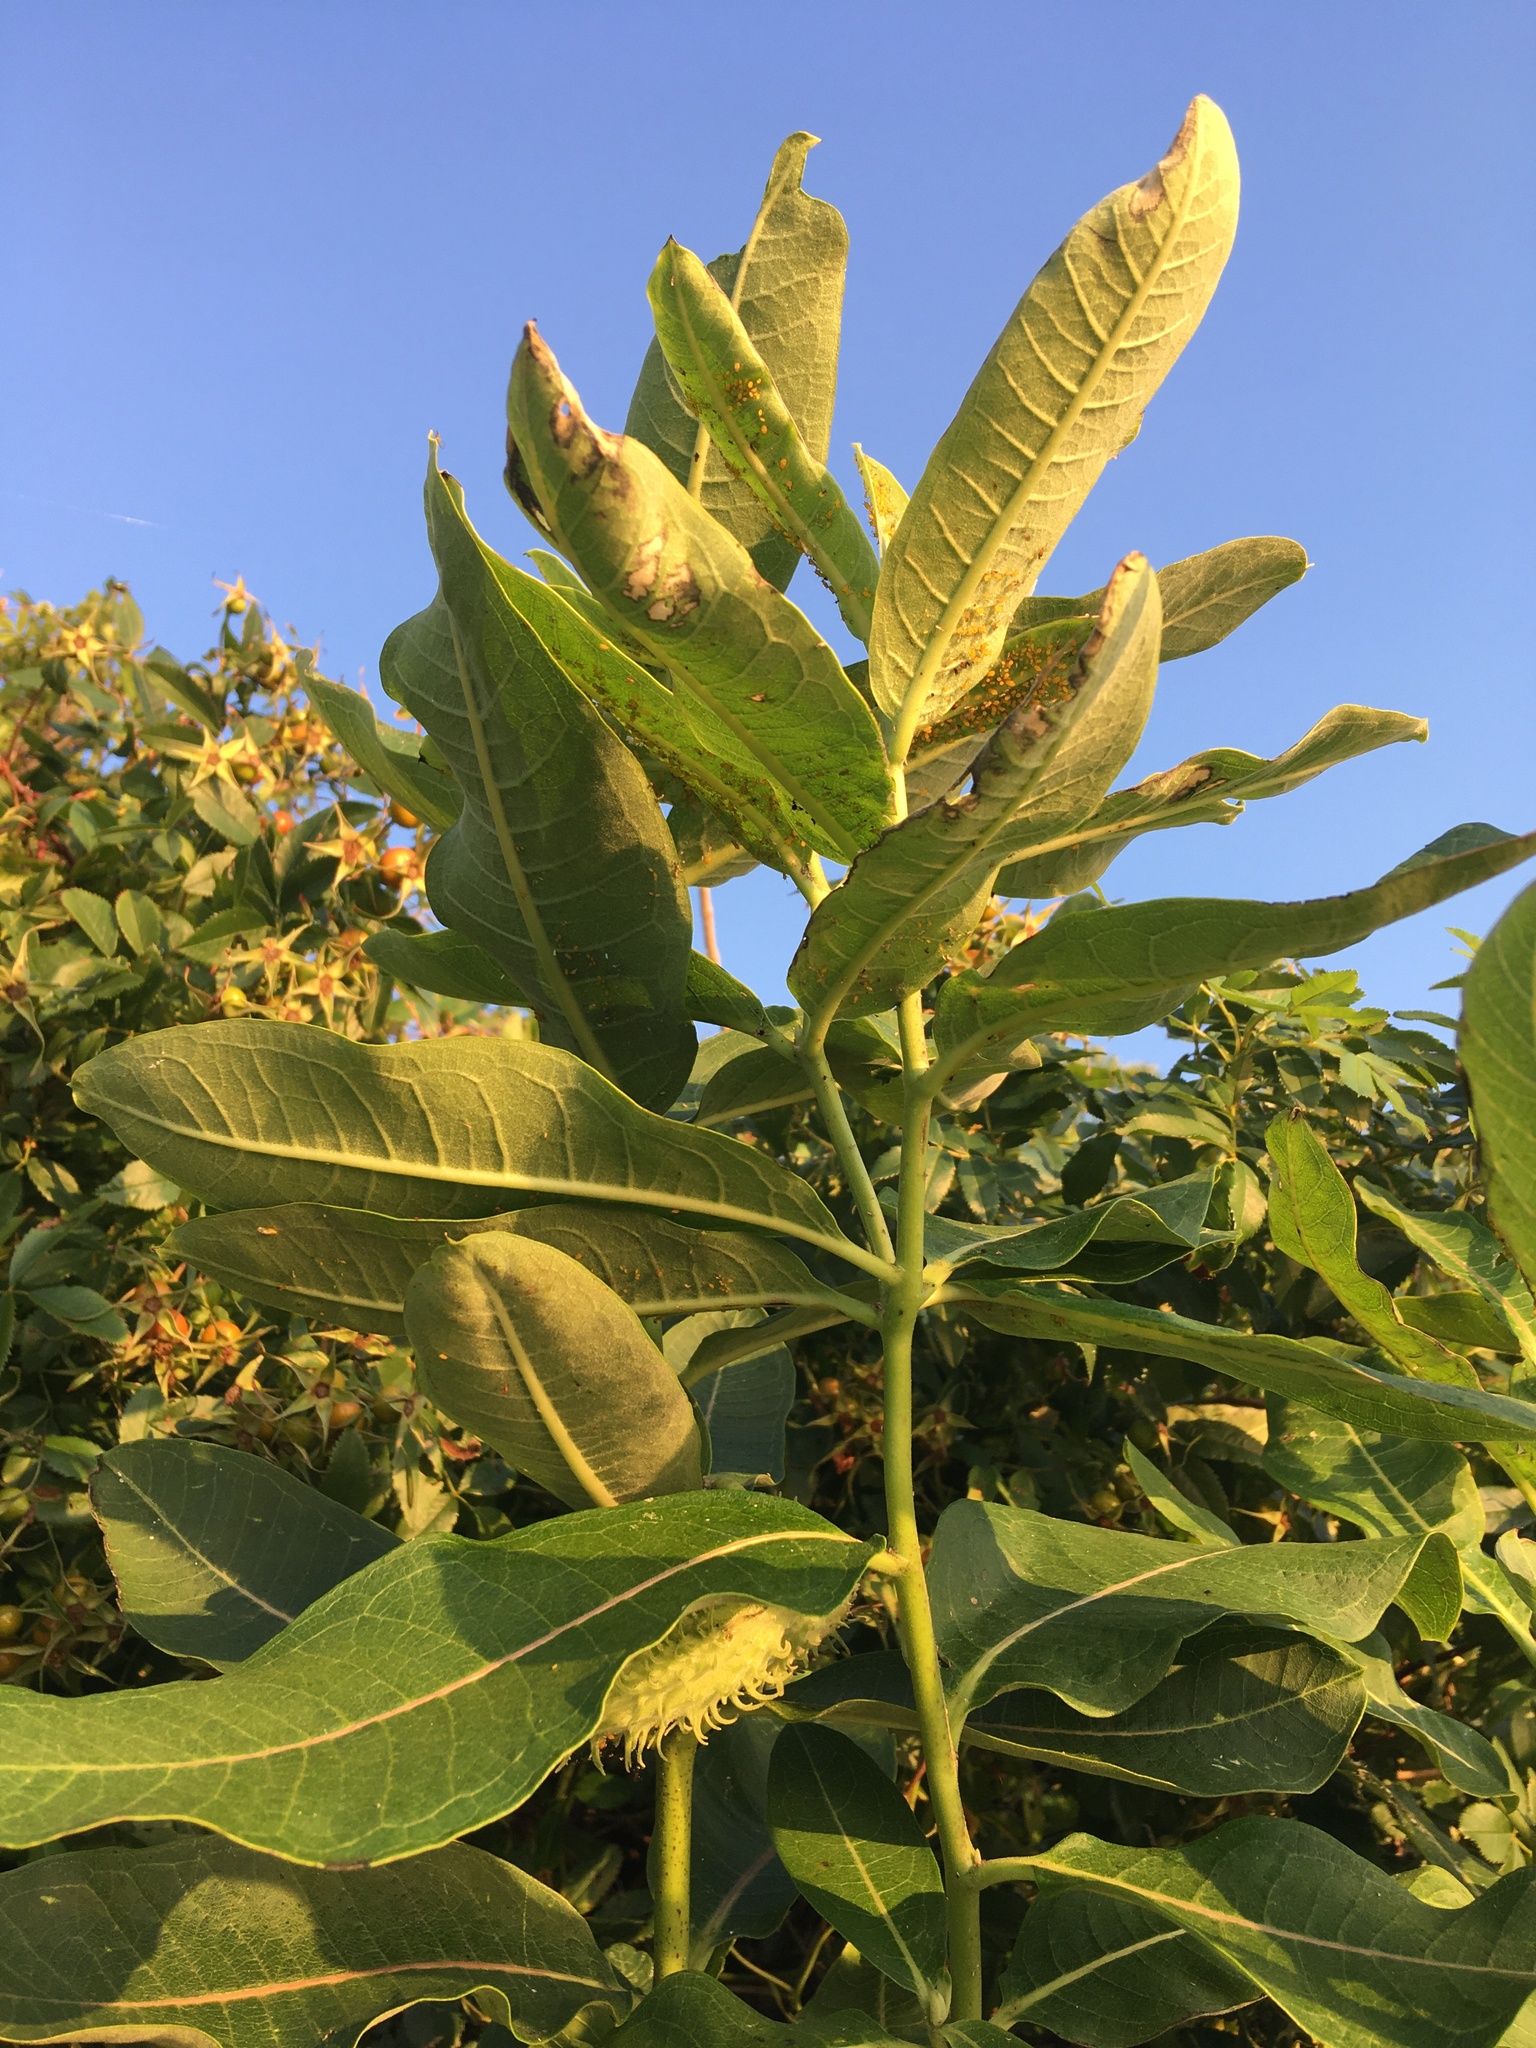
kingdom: Plantae
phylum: Tracheophyta
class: Magnoliopsida
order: Gentianales
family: Apocynaceae
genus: Asclepias
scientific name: Asclepias syriaca
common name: Common milkweed
